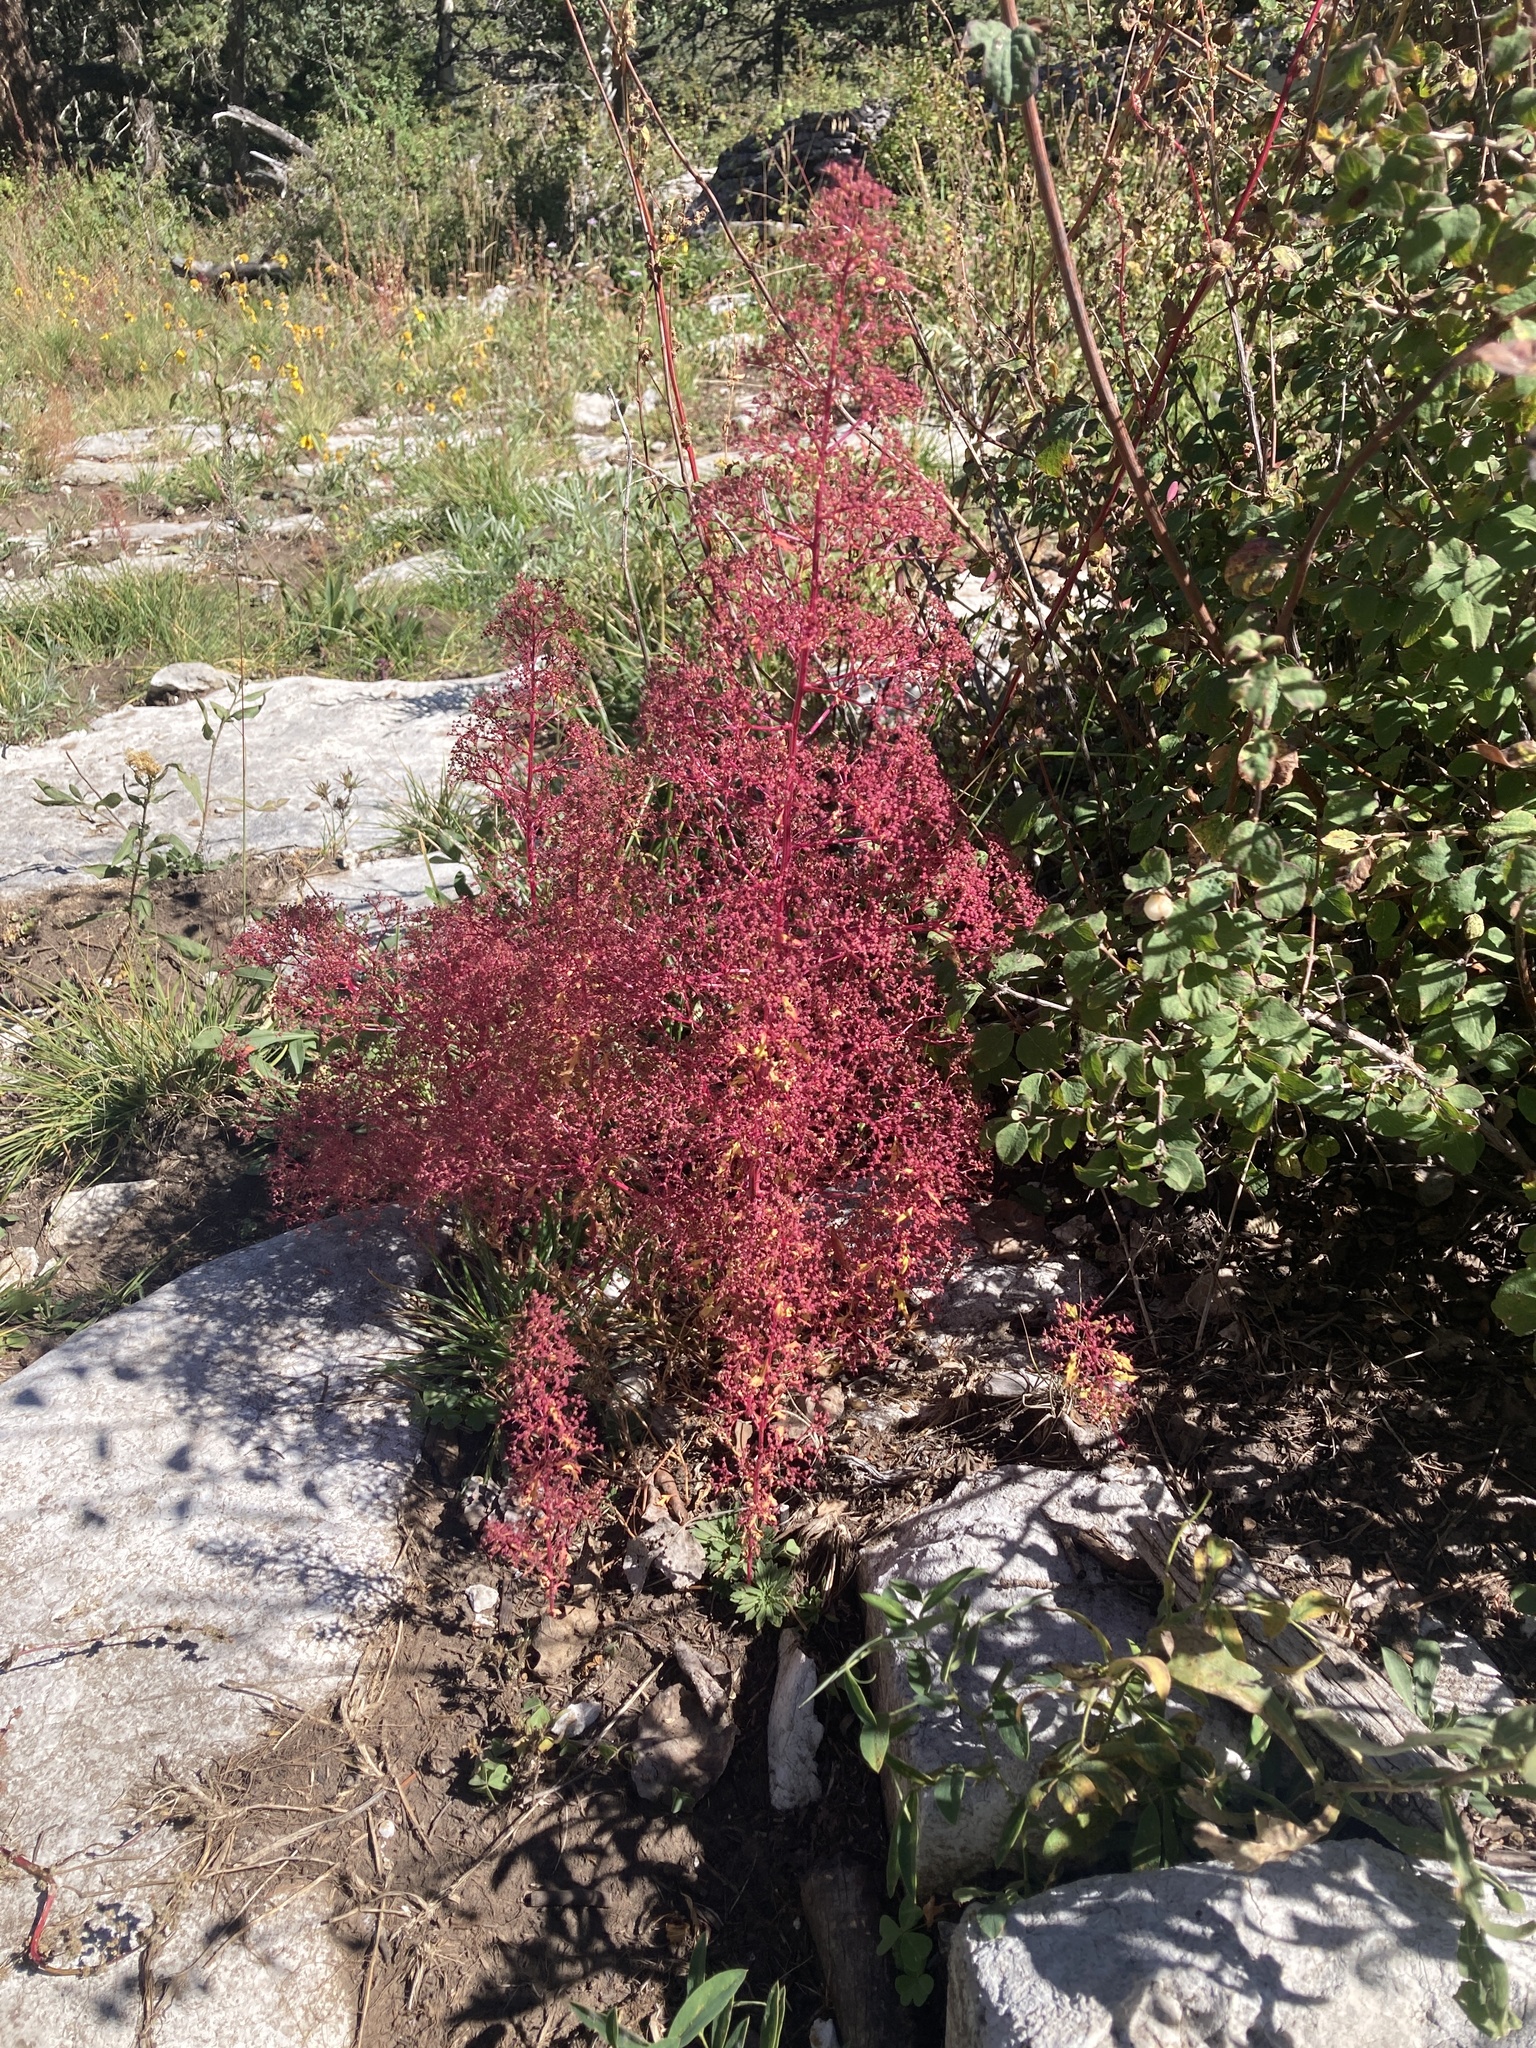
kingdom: Plantae
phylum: Tracheophyta
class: Magnoliopsida
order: Caryophyllales
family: Amaranthaceae
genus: Dysphania
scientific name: Dysphania incisa
